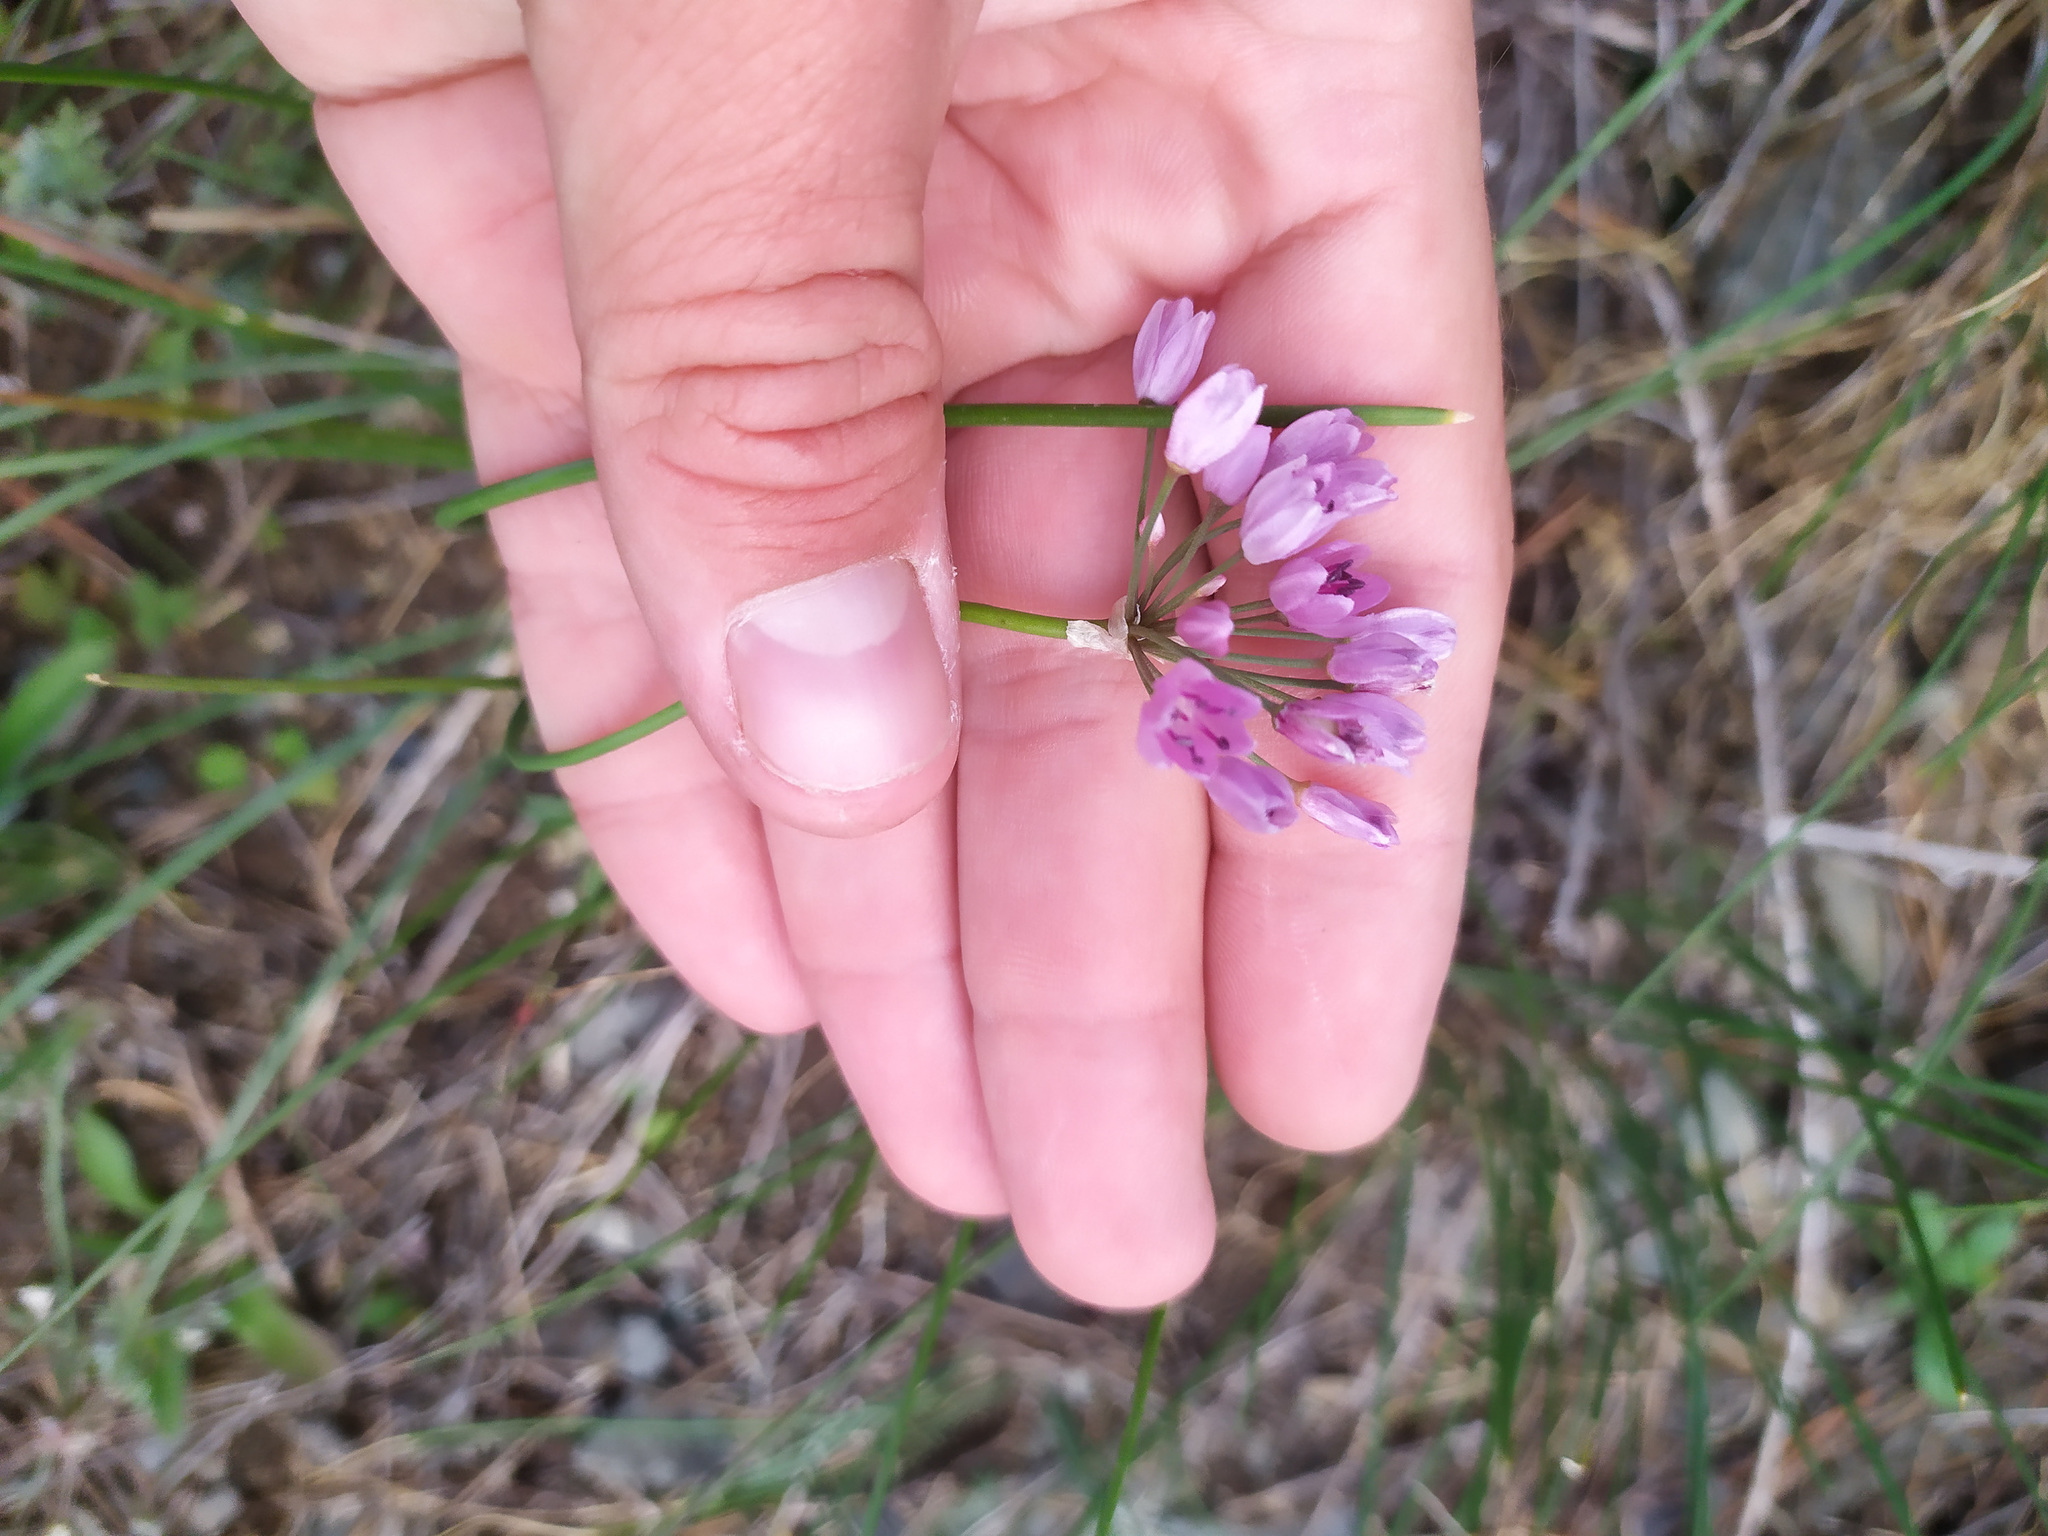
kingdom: Plantae
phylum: Tracheophyta
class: Liliopsida
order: Asparagales
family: Amaryllidaceae
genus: Allium
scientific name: Allium rubens
